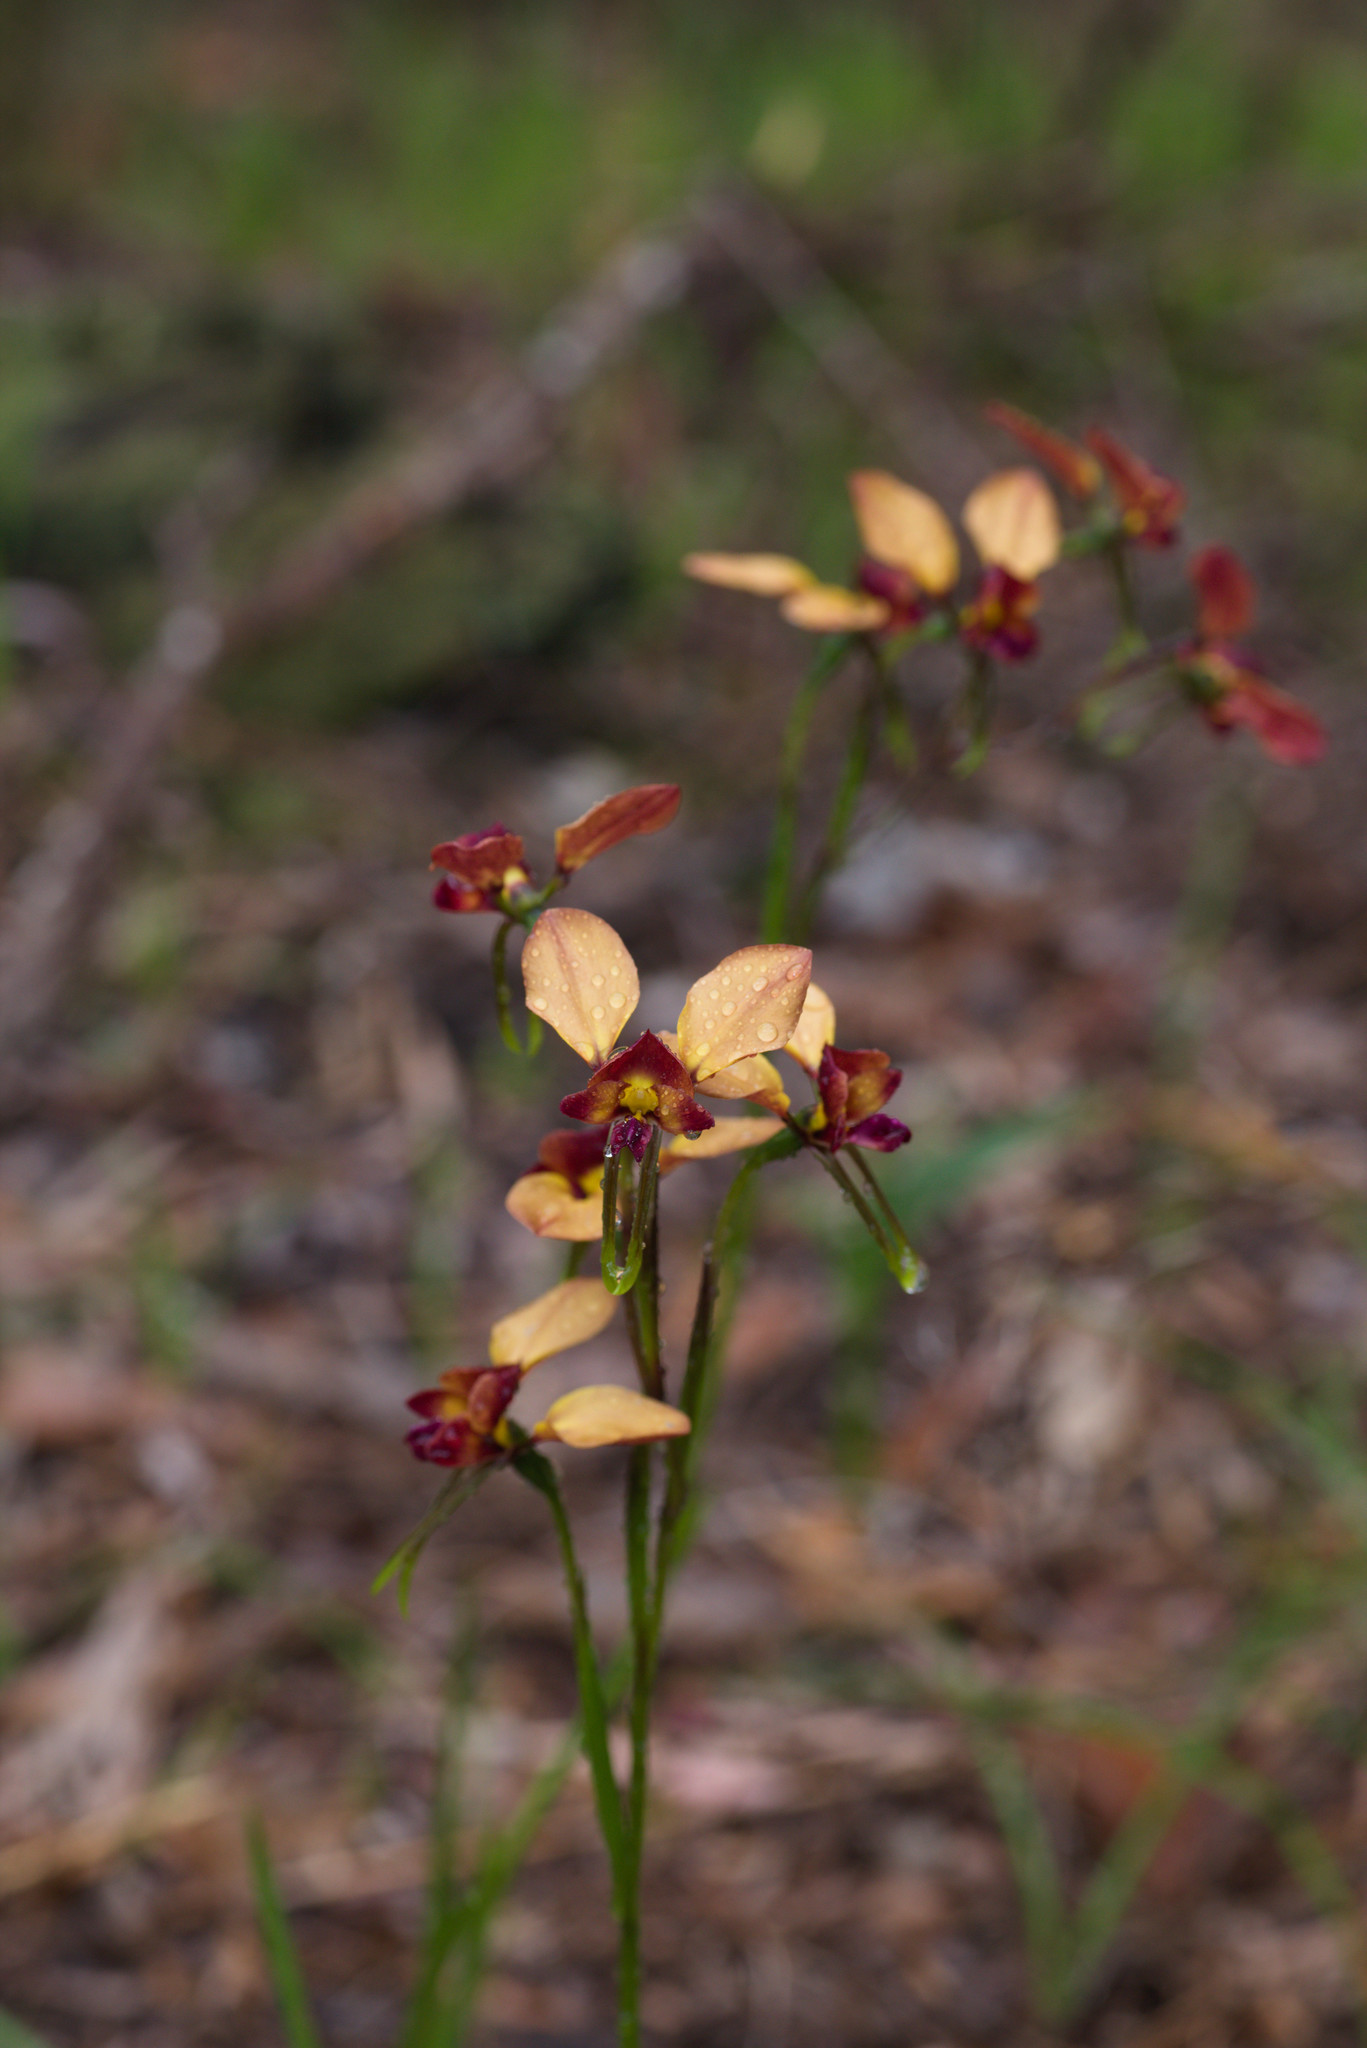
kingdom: Plantae
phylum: Tracheophyta
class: Liliopsida
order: Asparagales
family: Orchidaceae
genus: Diuris
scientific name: Diuris jonesii
